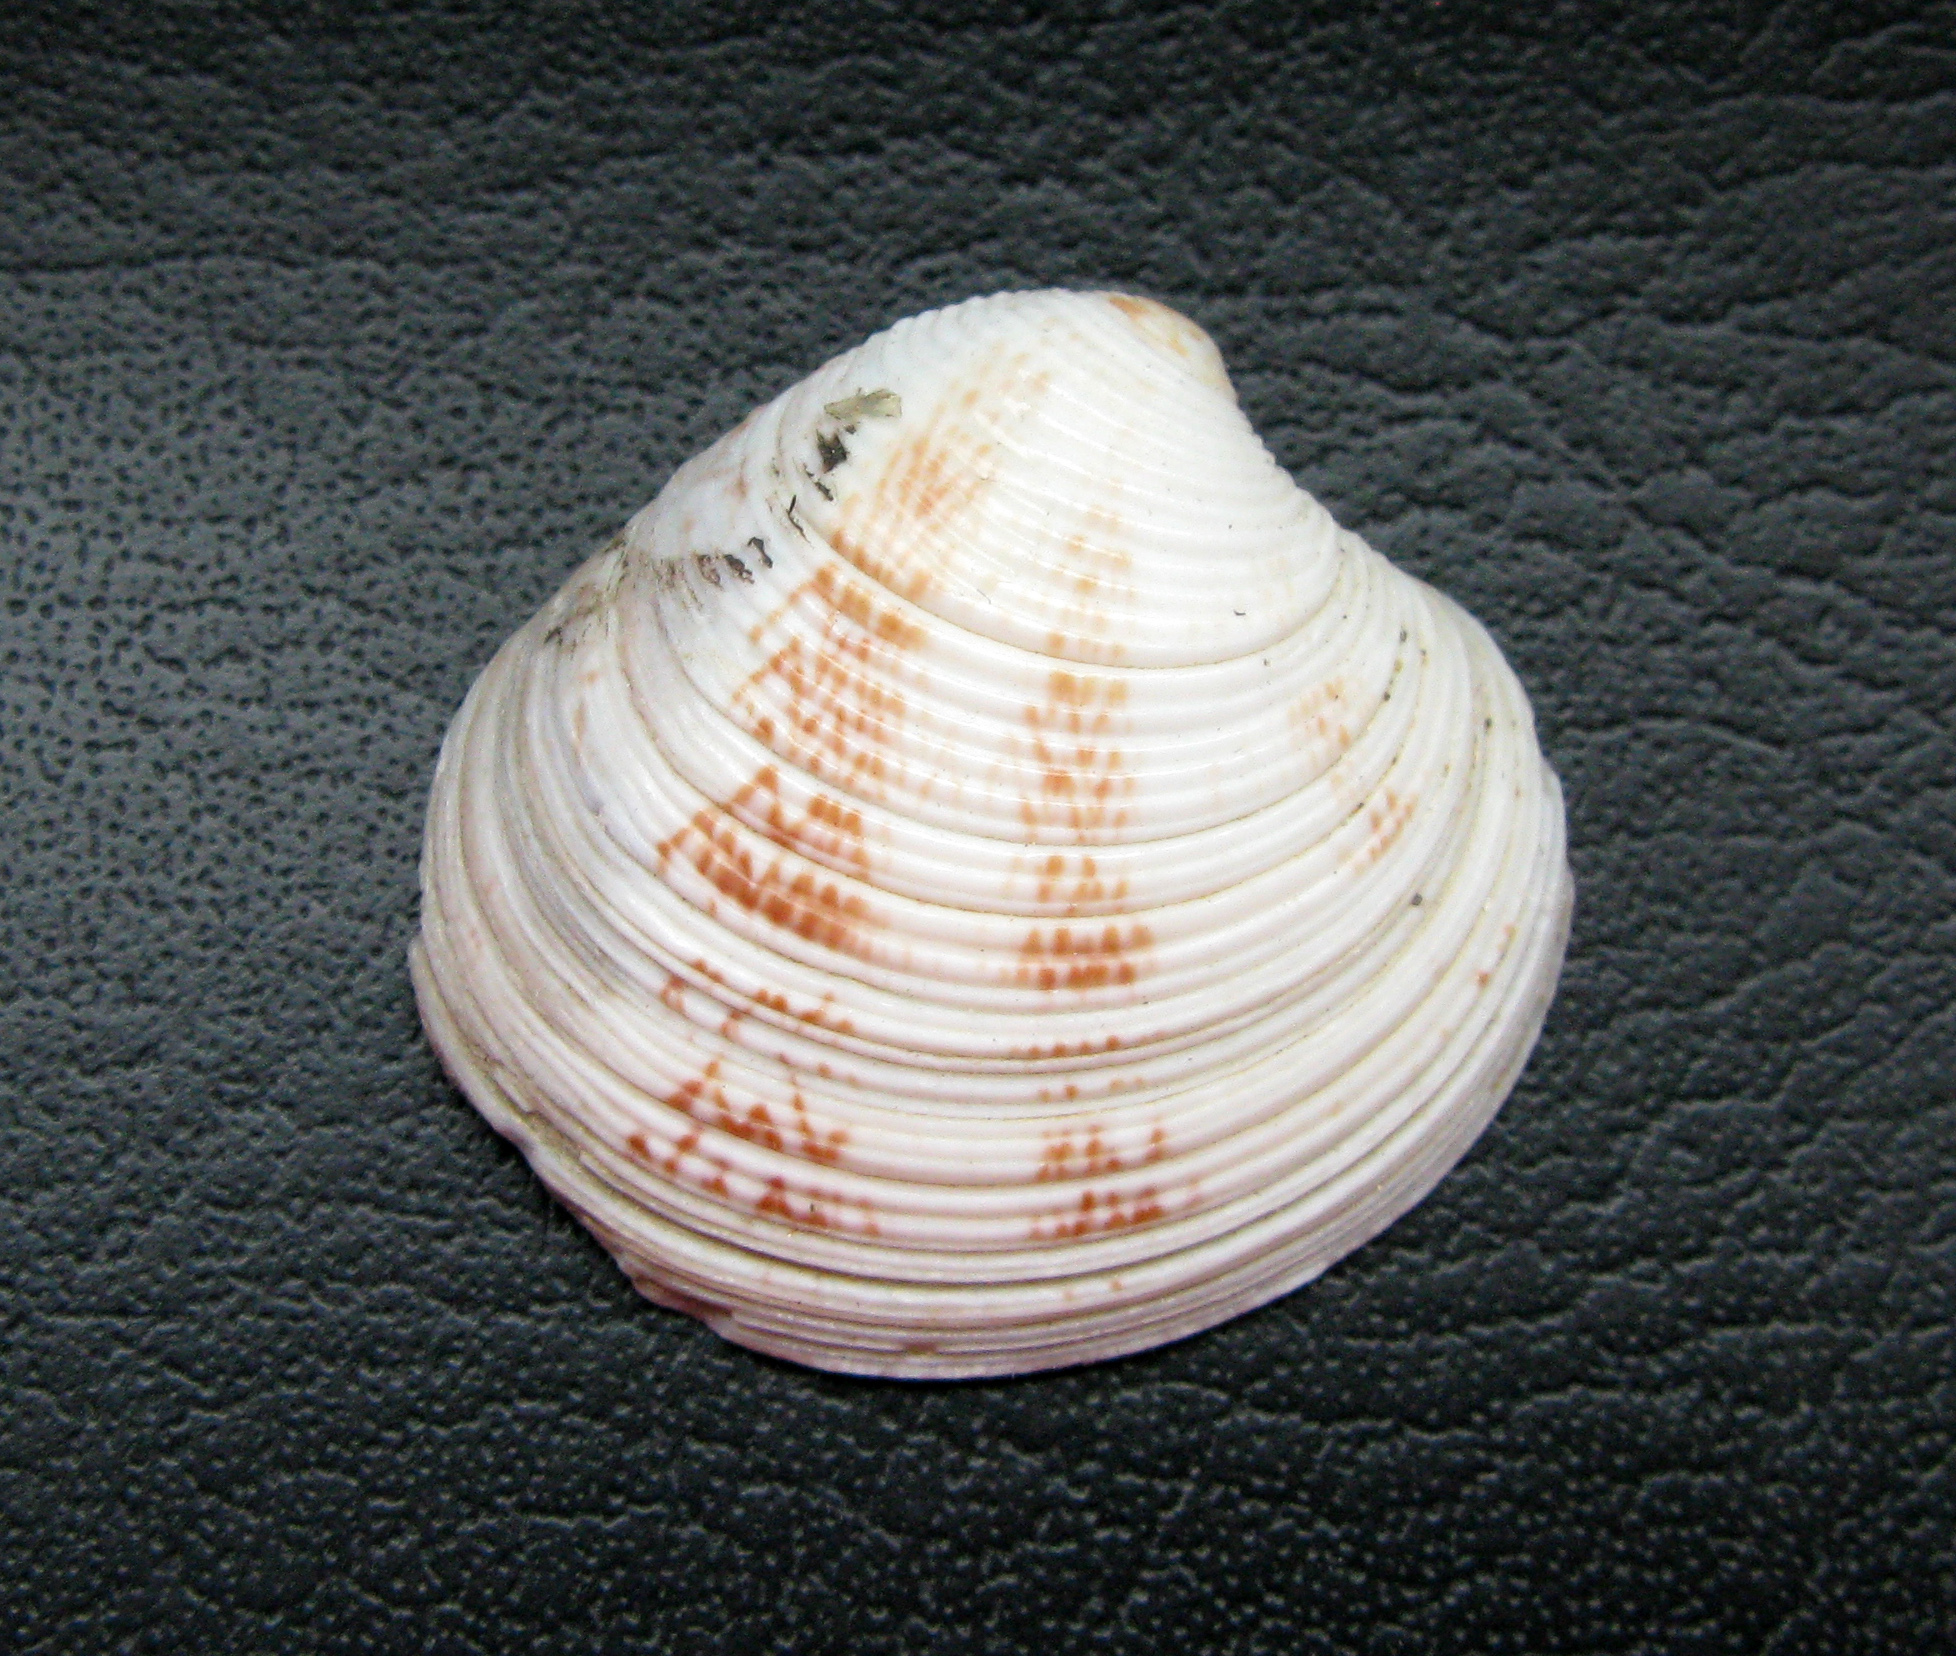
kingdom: Animalia
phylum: Mollusca
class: Bivalvia
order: Venerida
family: Veneridae
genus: Chamelea
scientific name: Chamelea gallina
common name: Chicken venus
